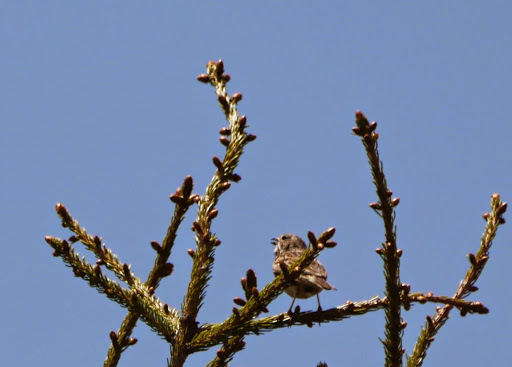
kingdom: Animalia
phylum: Chordata
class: Aves
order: Passeriformes
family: Passerellidae
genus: Pooecetes
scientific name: Pooecetes gramineus
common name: Vesper sparrow
